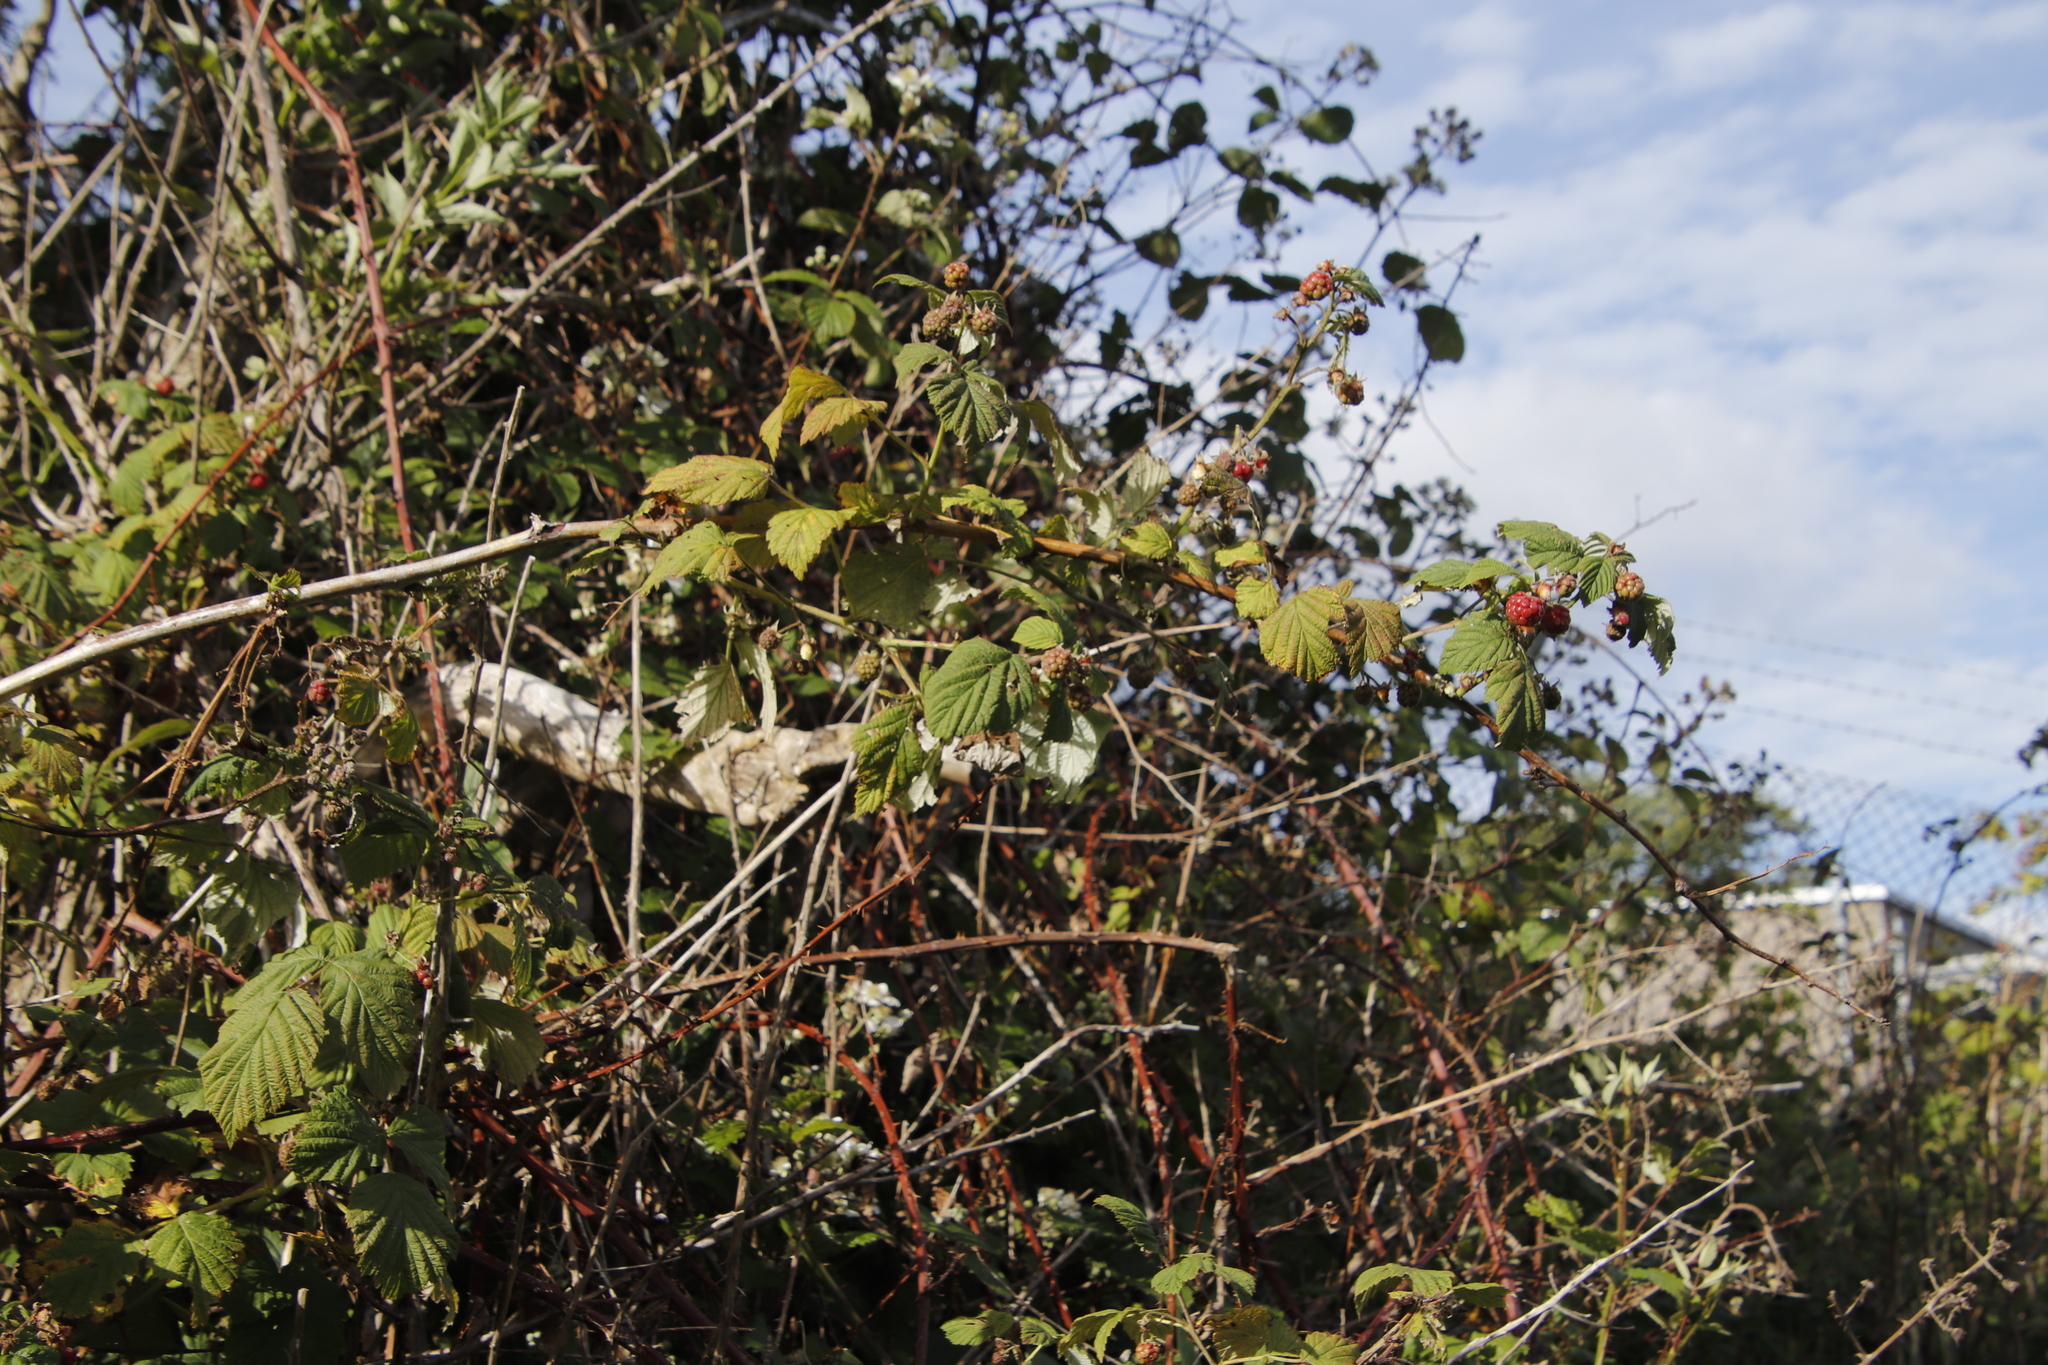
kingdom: Plantae
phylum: Tracheophyta
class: Magnoliopsida
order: Rosales
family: Rosaceae
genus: Rubus
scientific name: Rubus idaeus
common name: Raspberry
